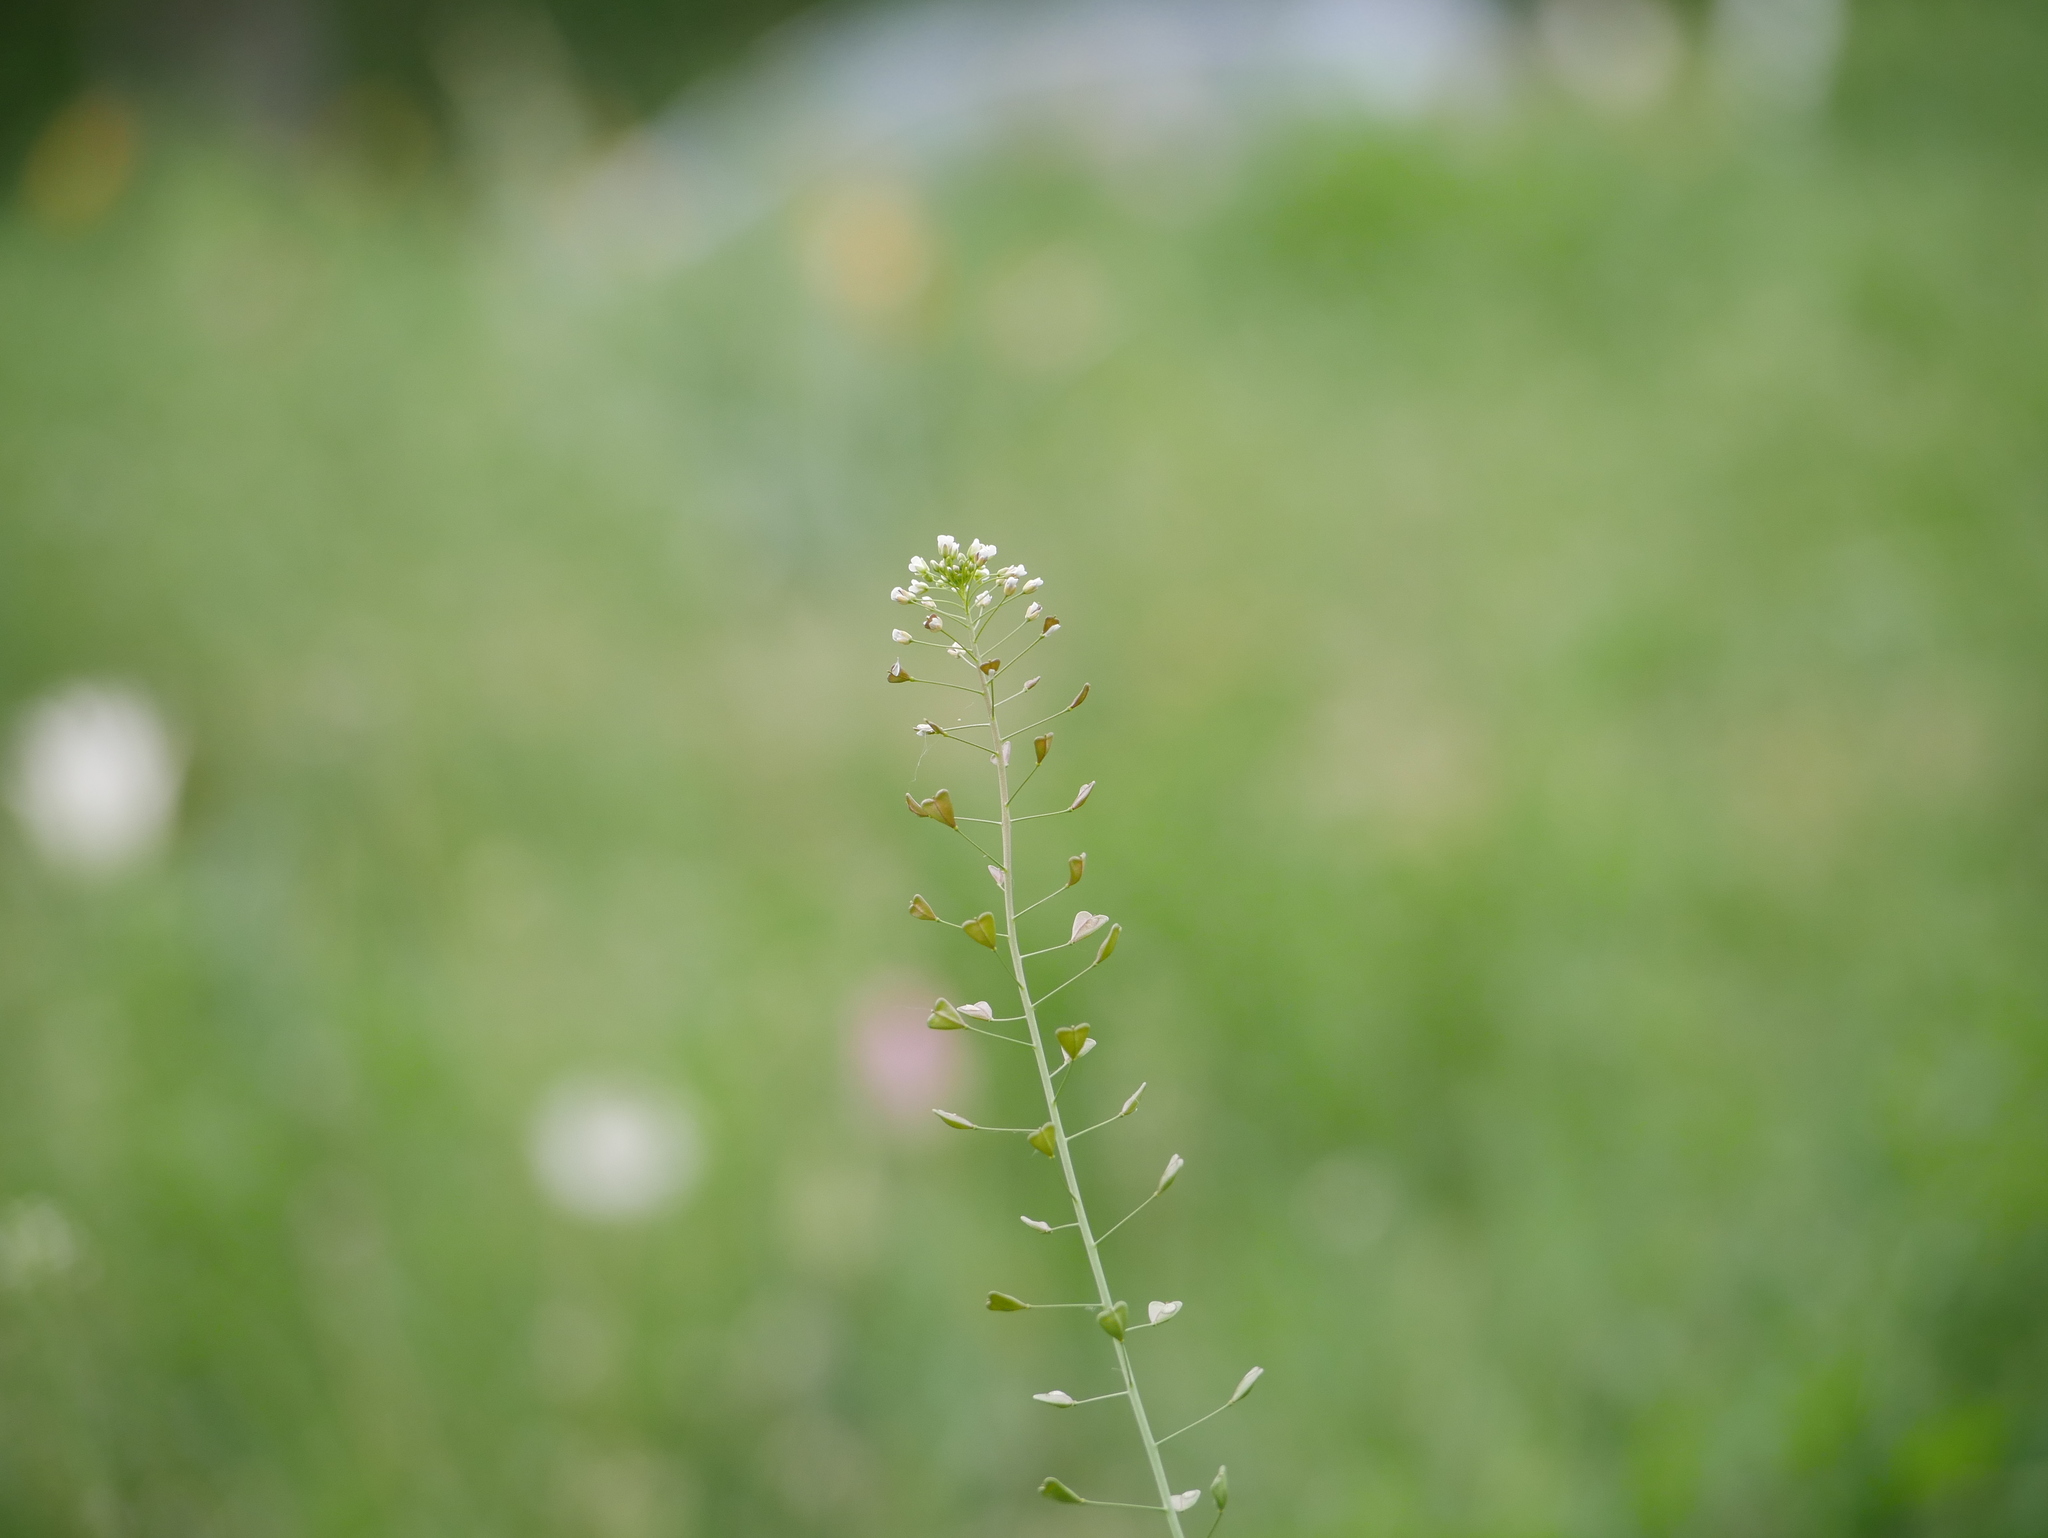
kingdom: Plantae
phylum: Tracheophyta
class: Magnoliopsida
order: Brassicales
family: Brassicaceae
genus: Capsella
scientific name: Capsella bursa-pastoris
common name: Shepherd's purse
